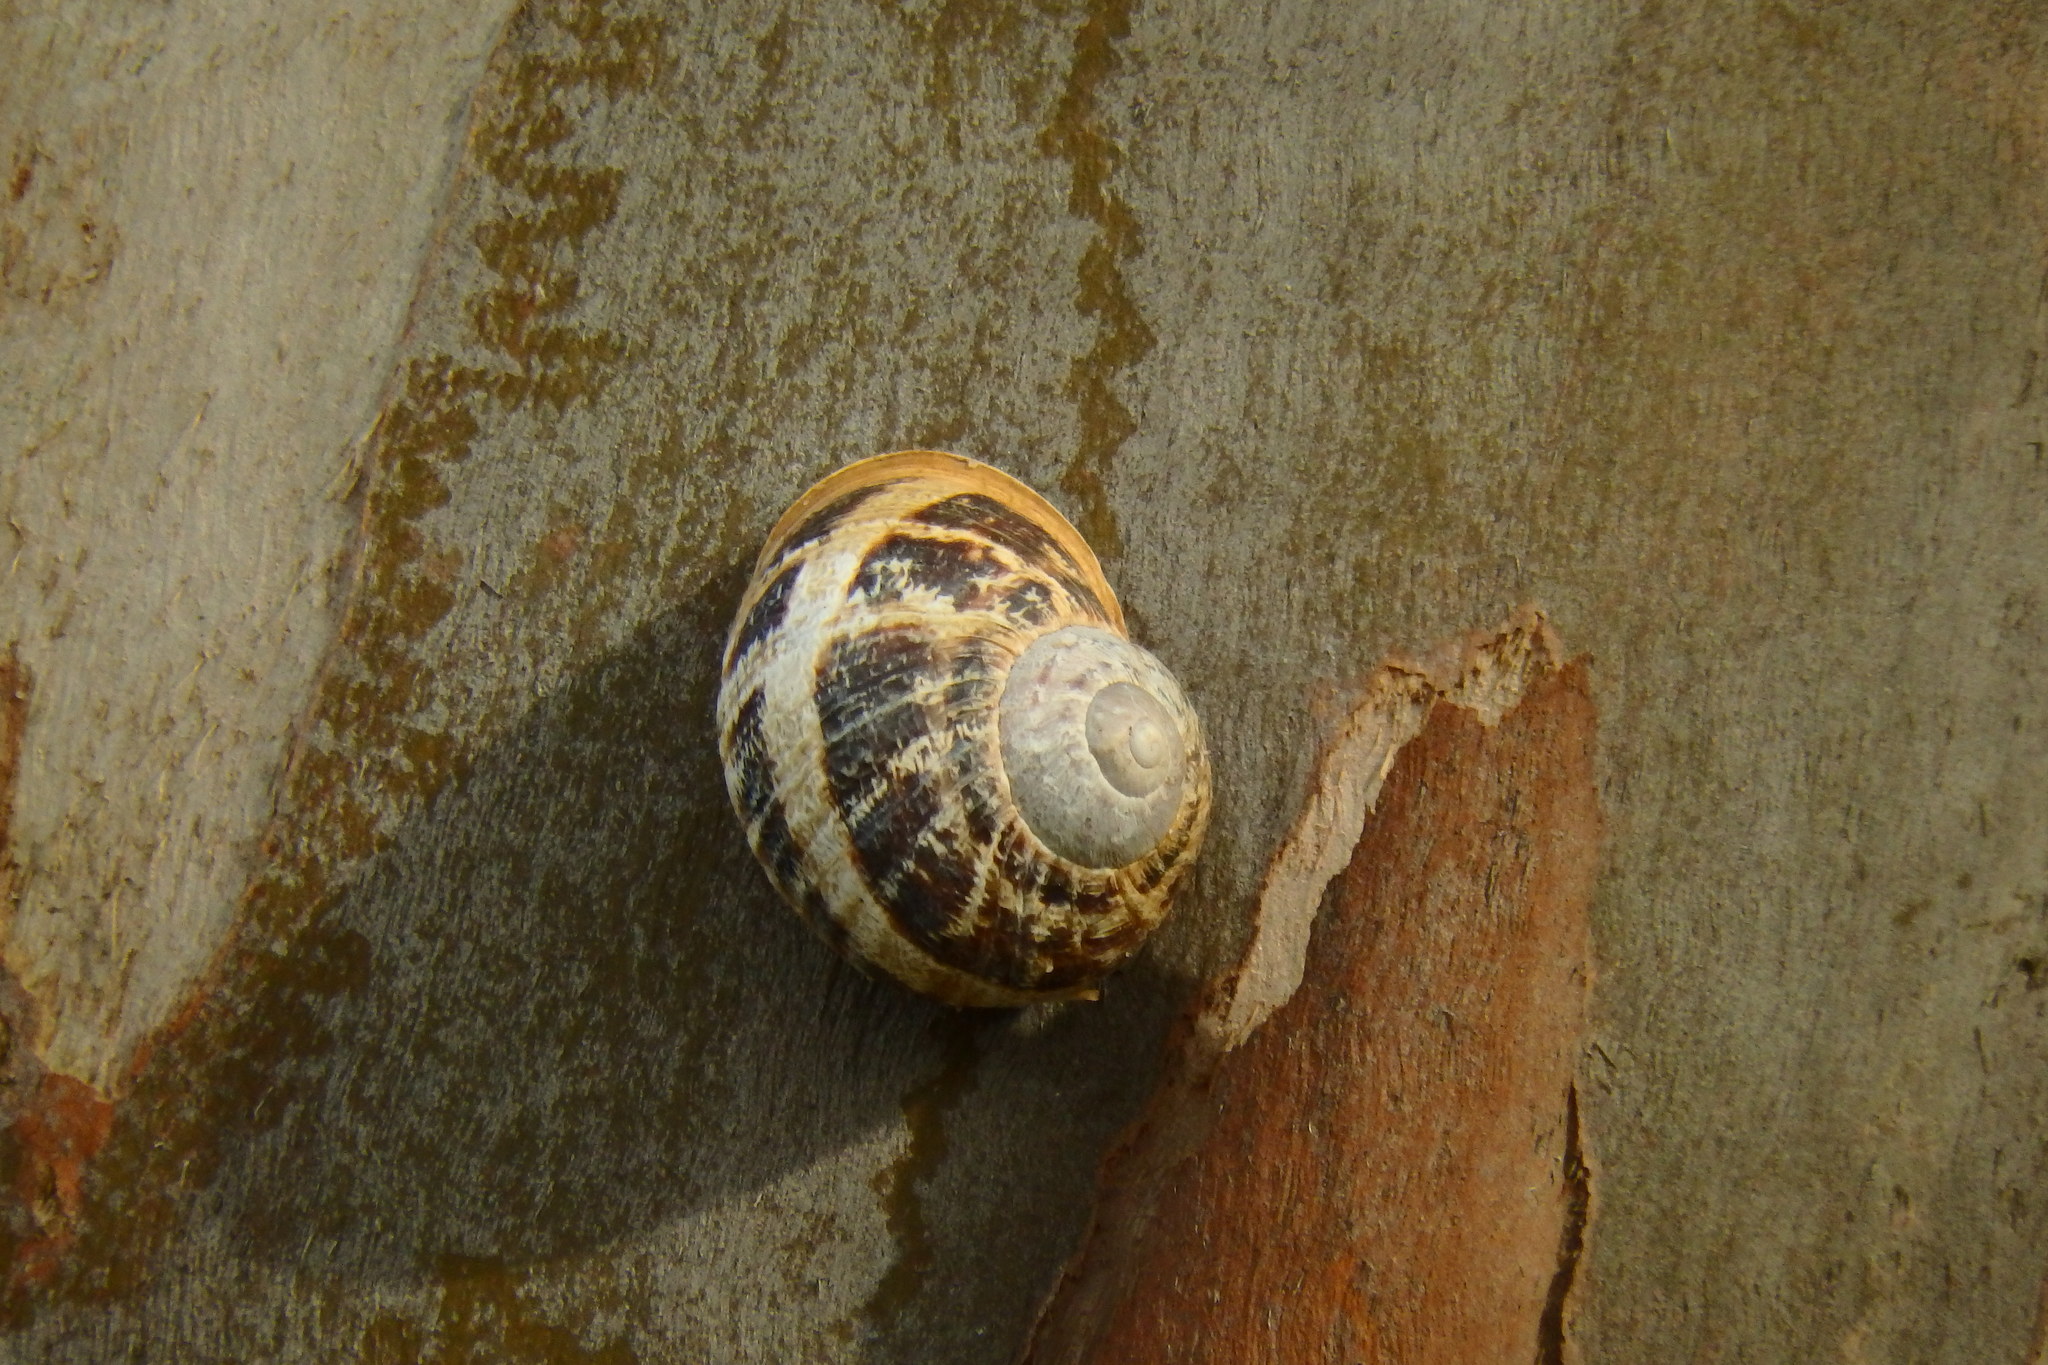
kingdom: Animalia
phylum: Mollusca
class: Gastropoda
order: Stylommatophora
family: Helicidae
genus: Cornu
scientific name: Cornu aspersum
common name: Brown garden snail
